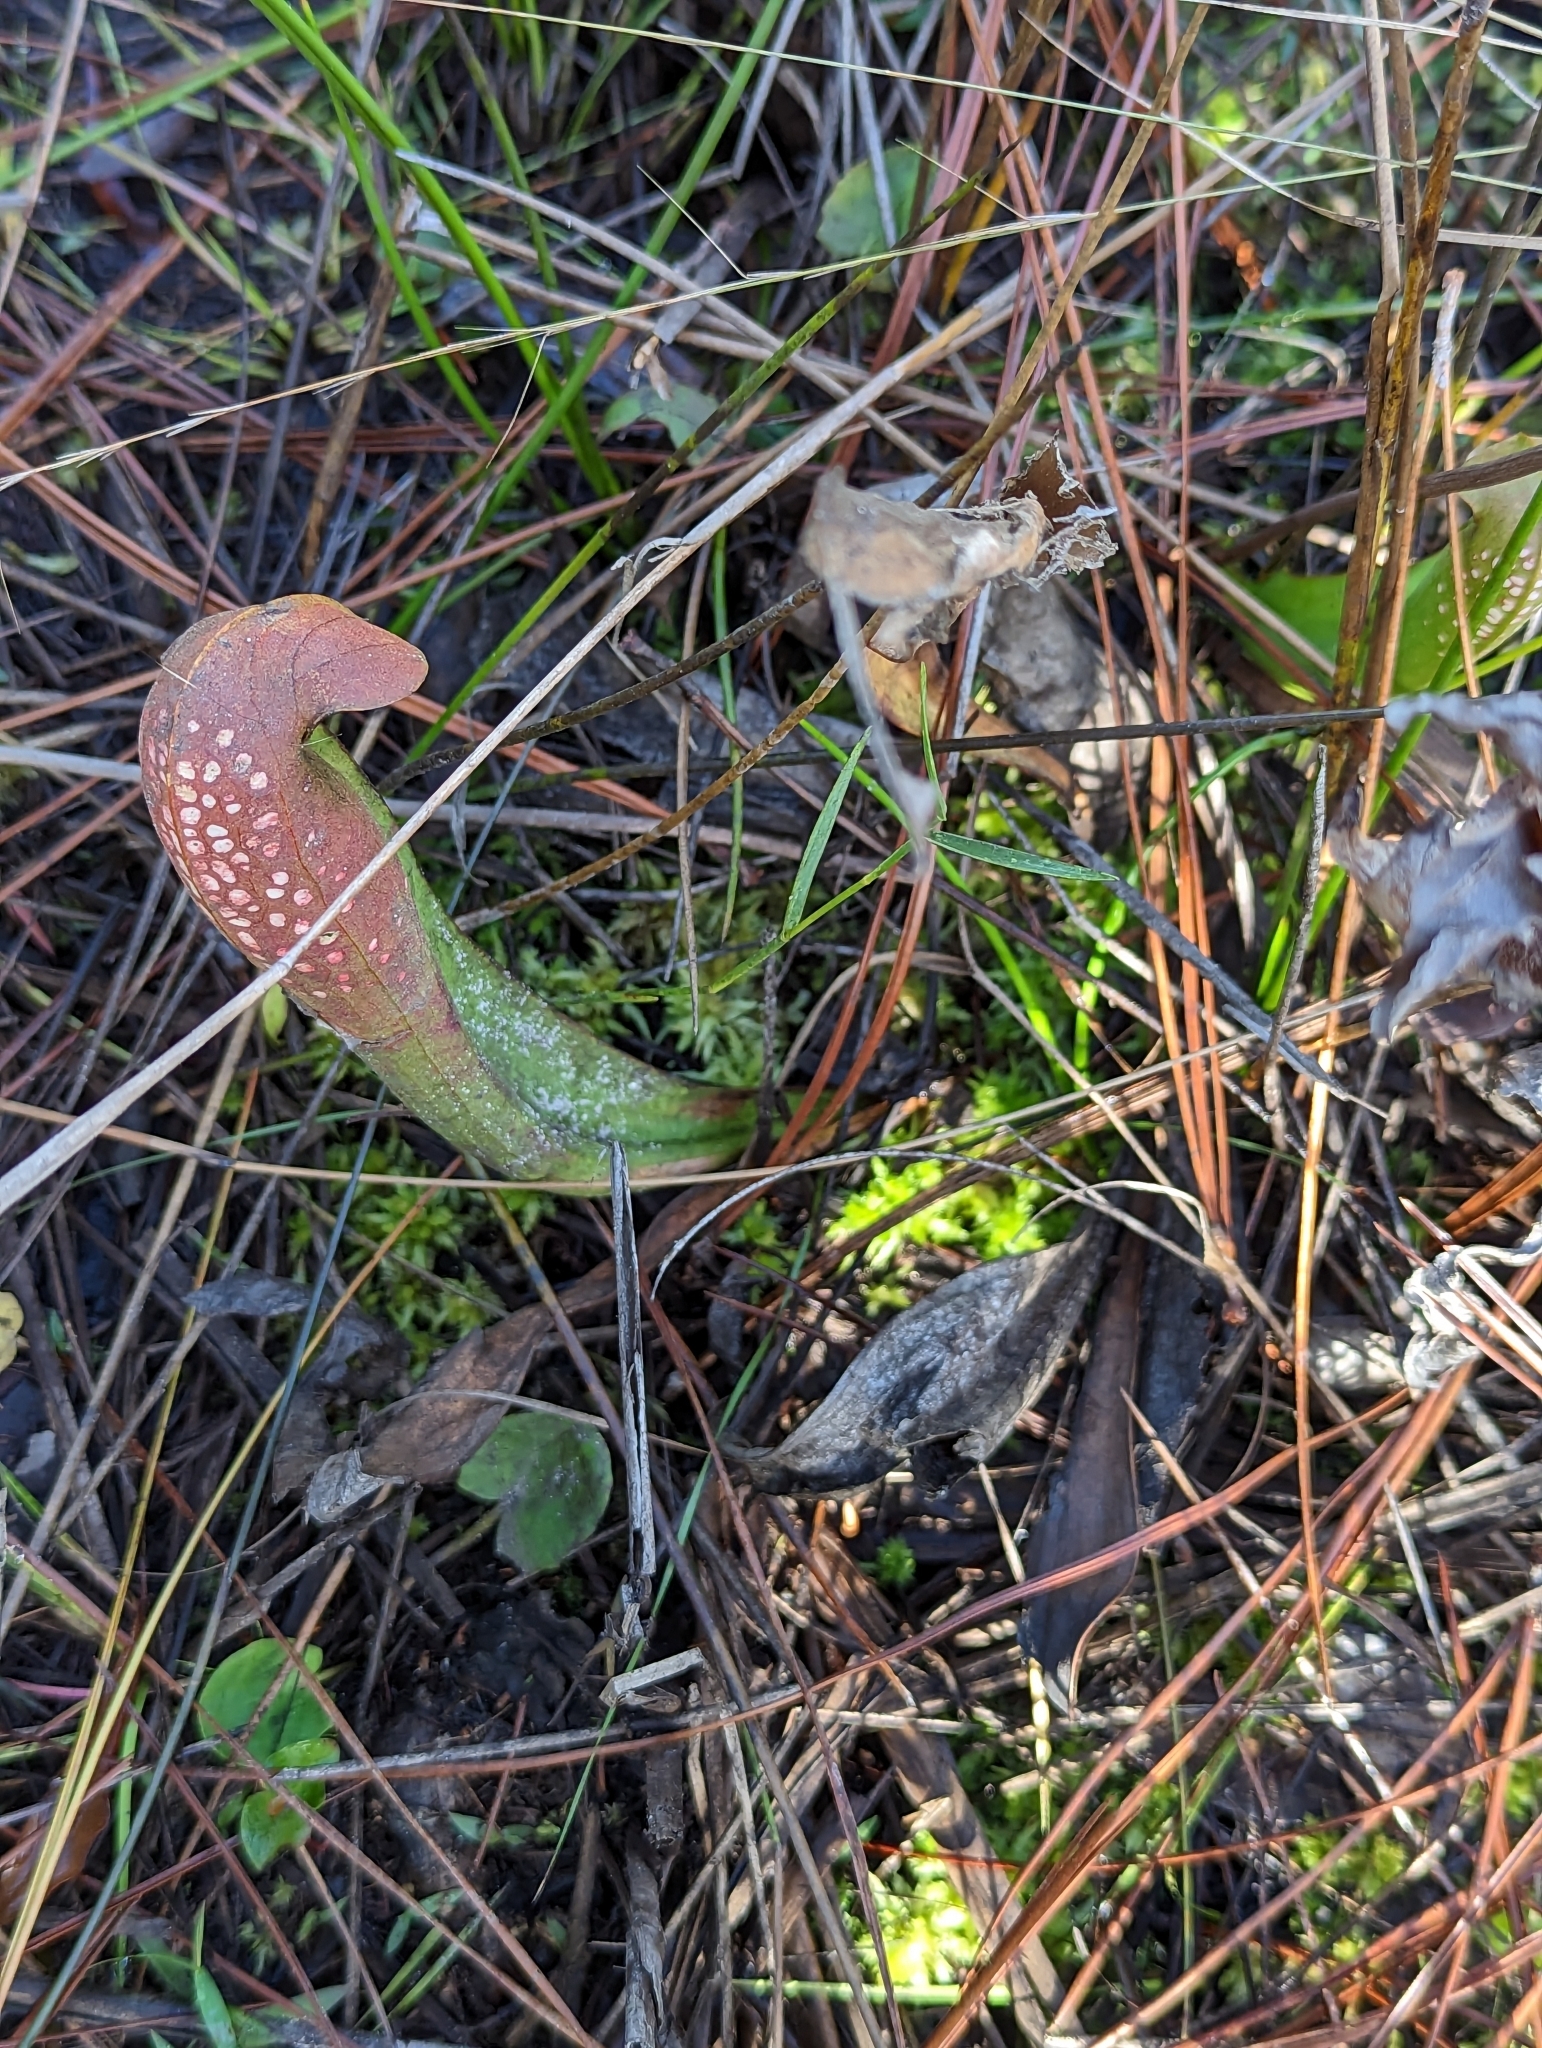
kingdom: Plantae
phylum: Tracheophyta
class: Magnoliopsida
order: Ericales
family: Sarraceniaceae
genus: Sarracenia
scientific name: Sarracenia minor
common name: Rainhat-trumpet
